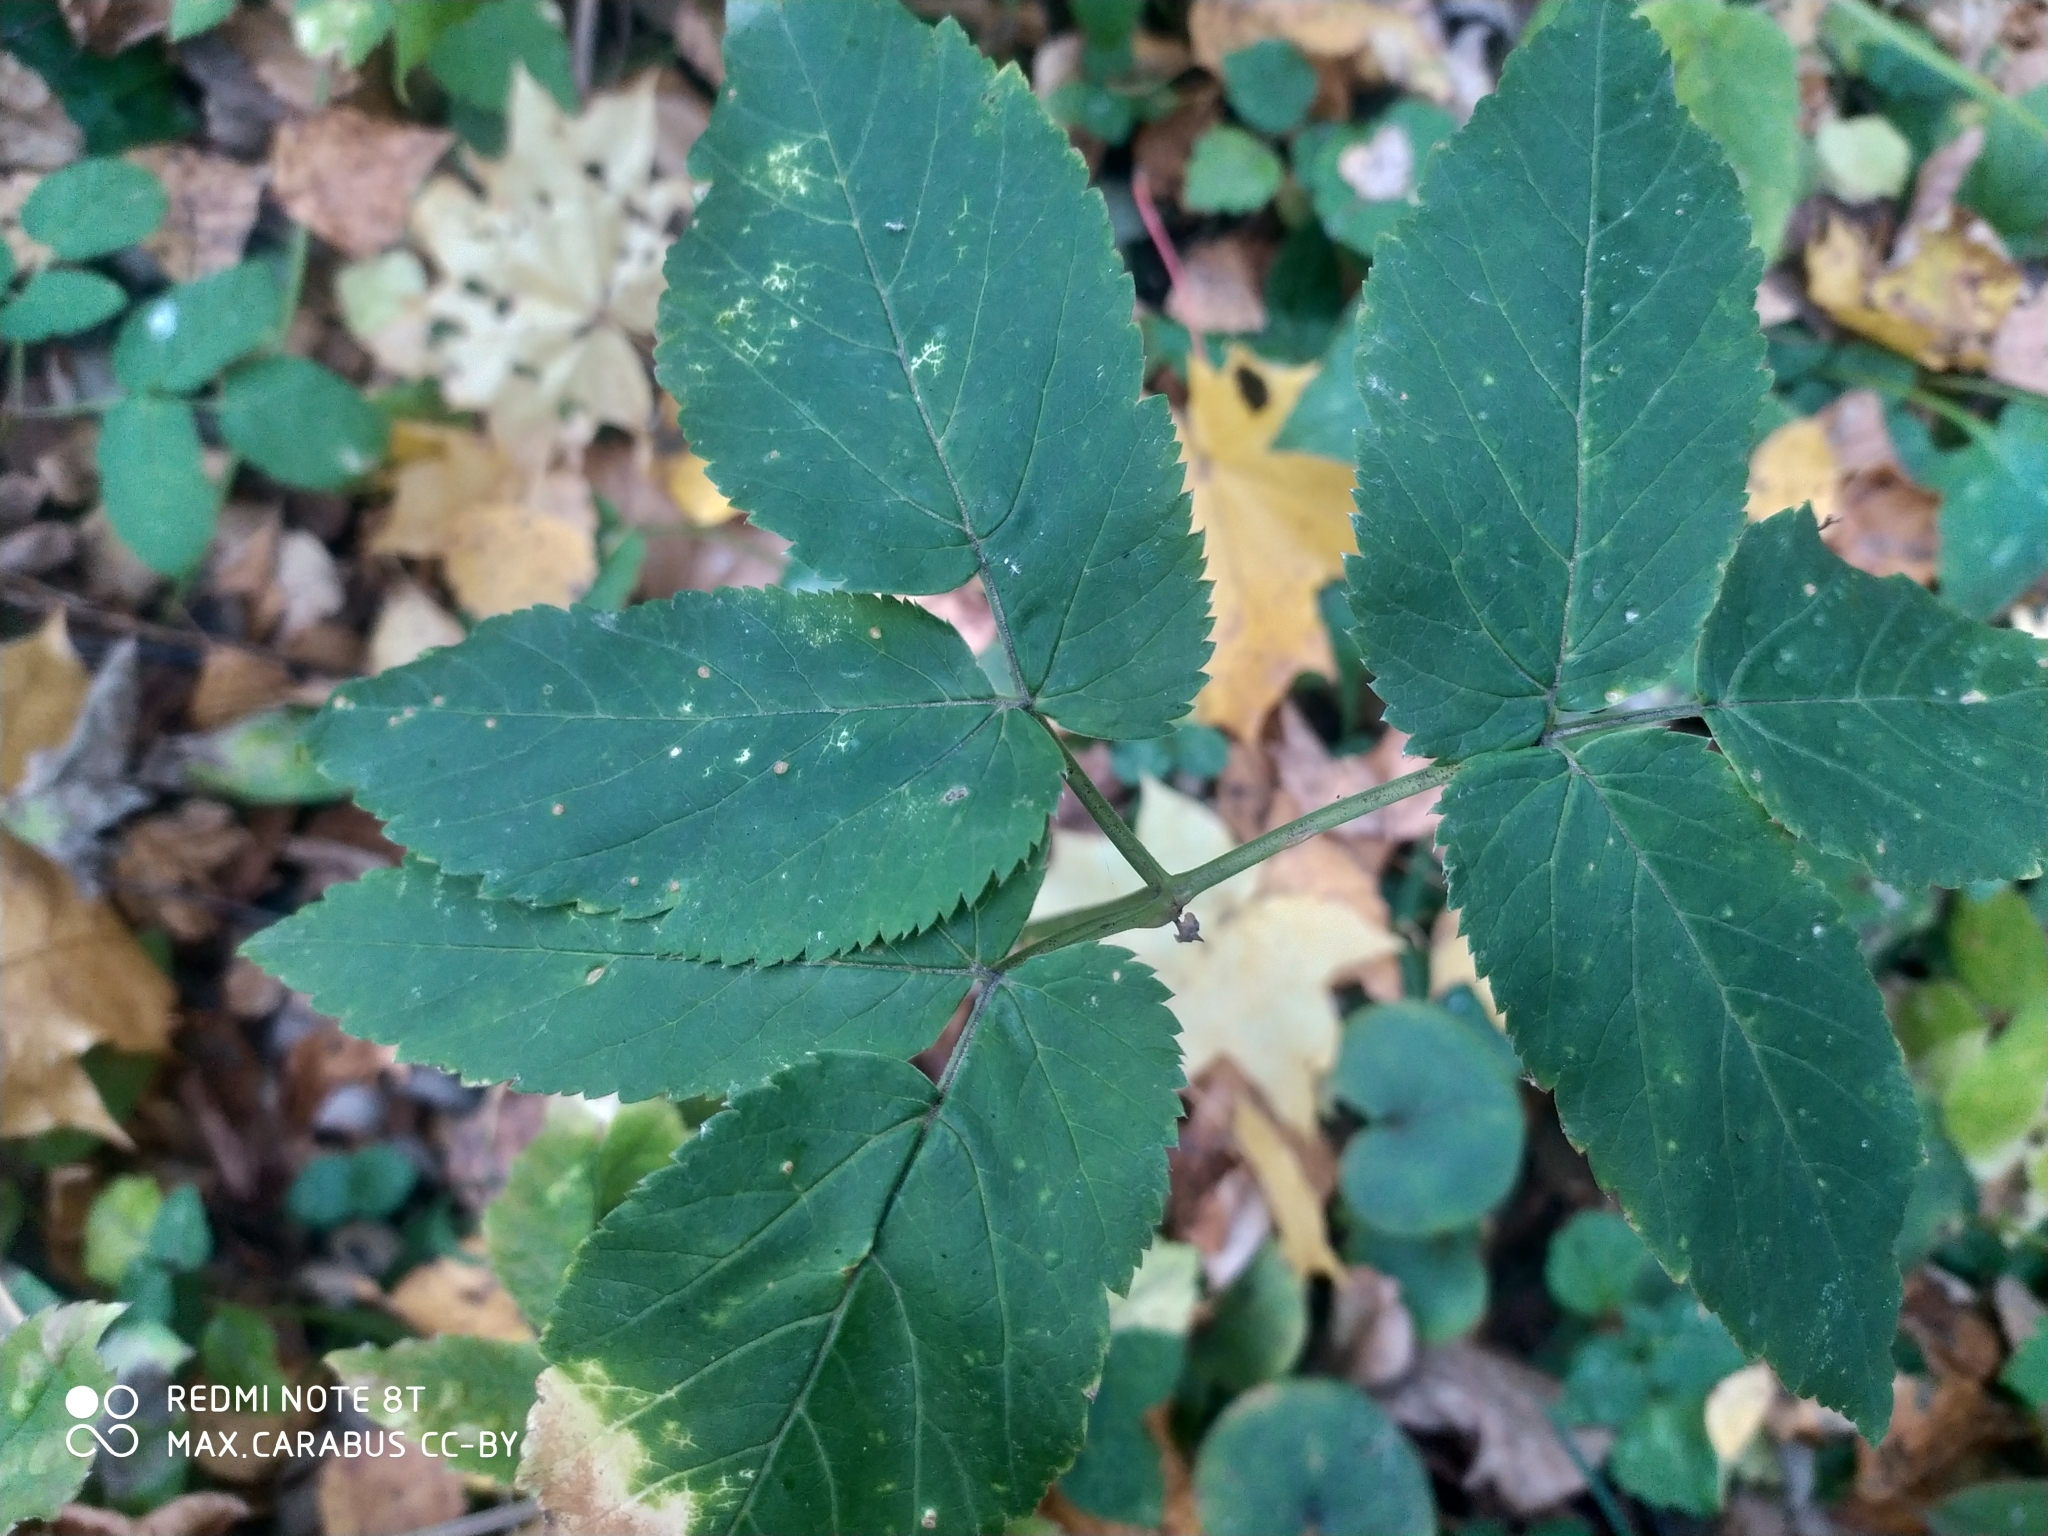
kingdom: Plantae
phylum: Tracheophyta
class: Magnoliopsida
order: Apiales
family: Apiaceae
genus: Aegopodium
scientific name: Aegopodium podagraria
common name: Ground-elder
